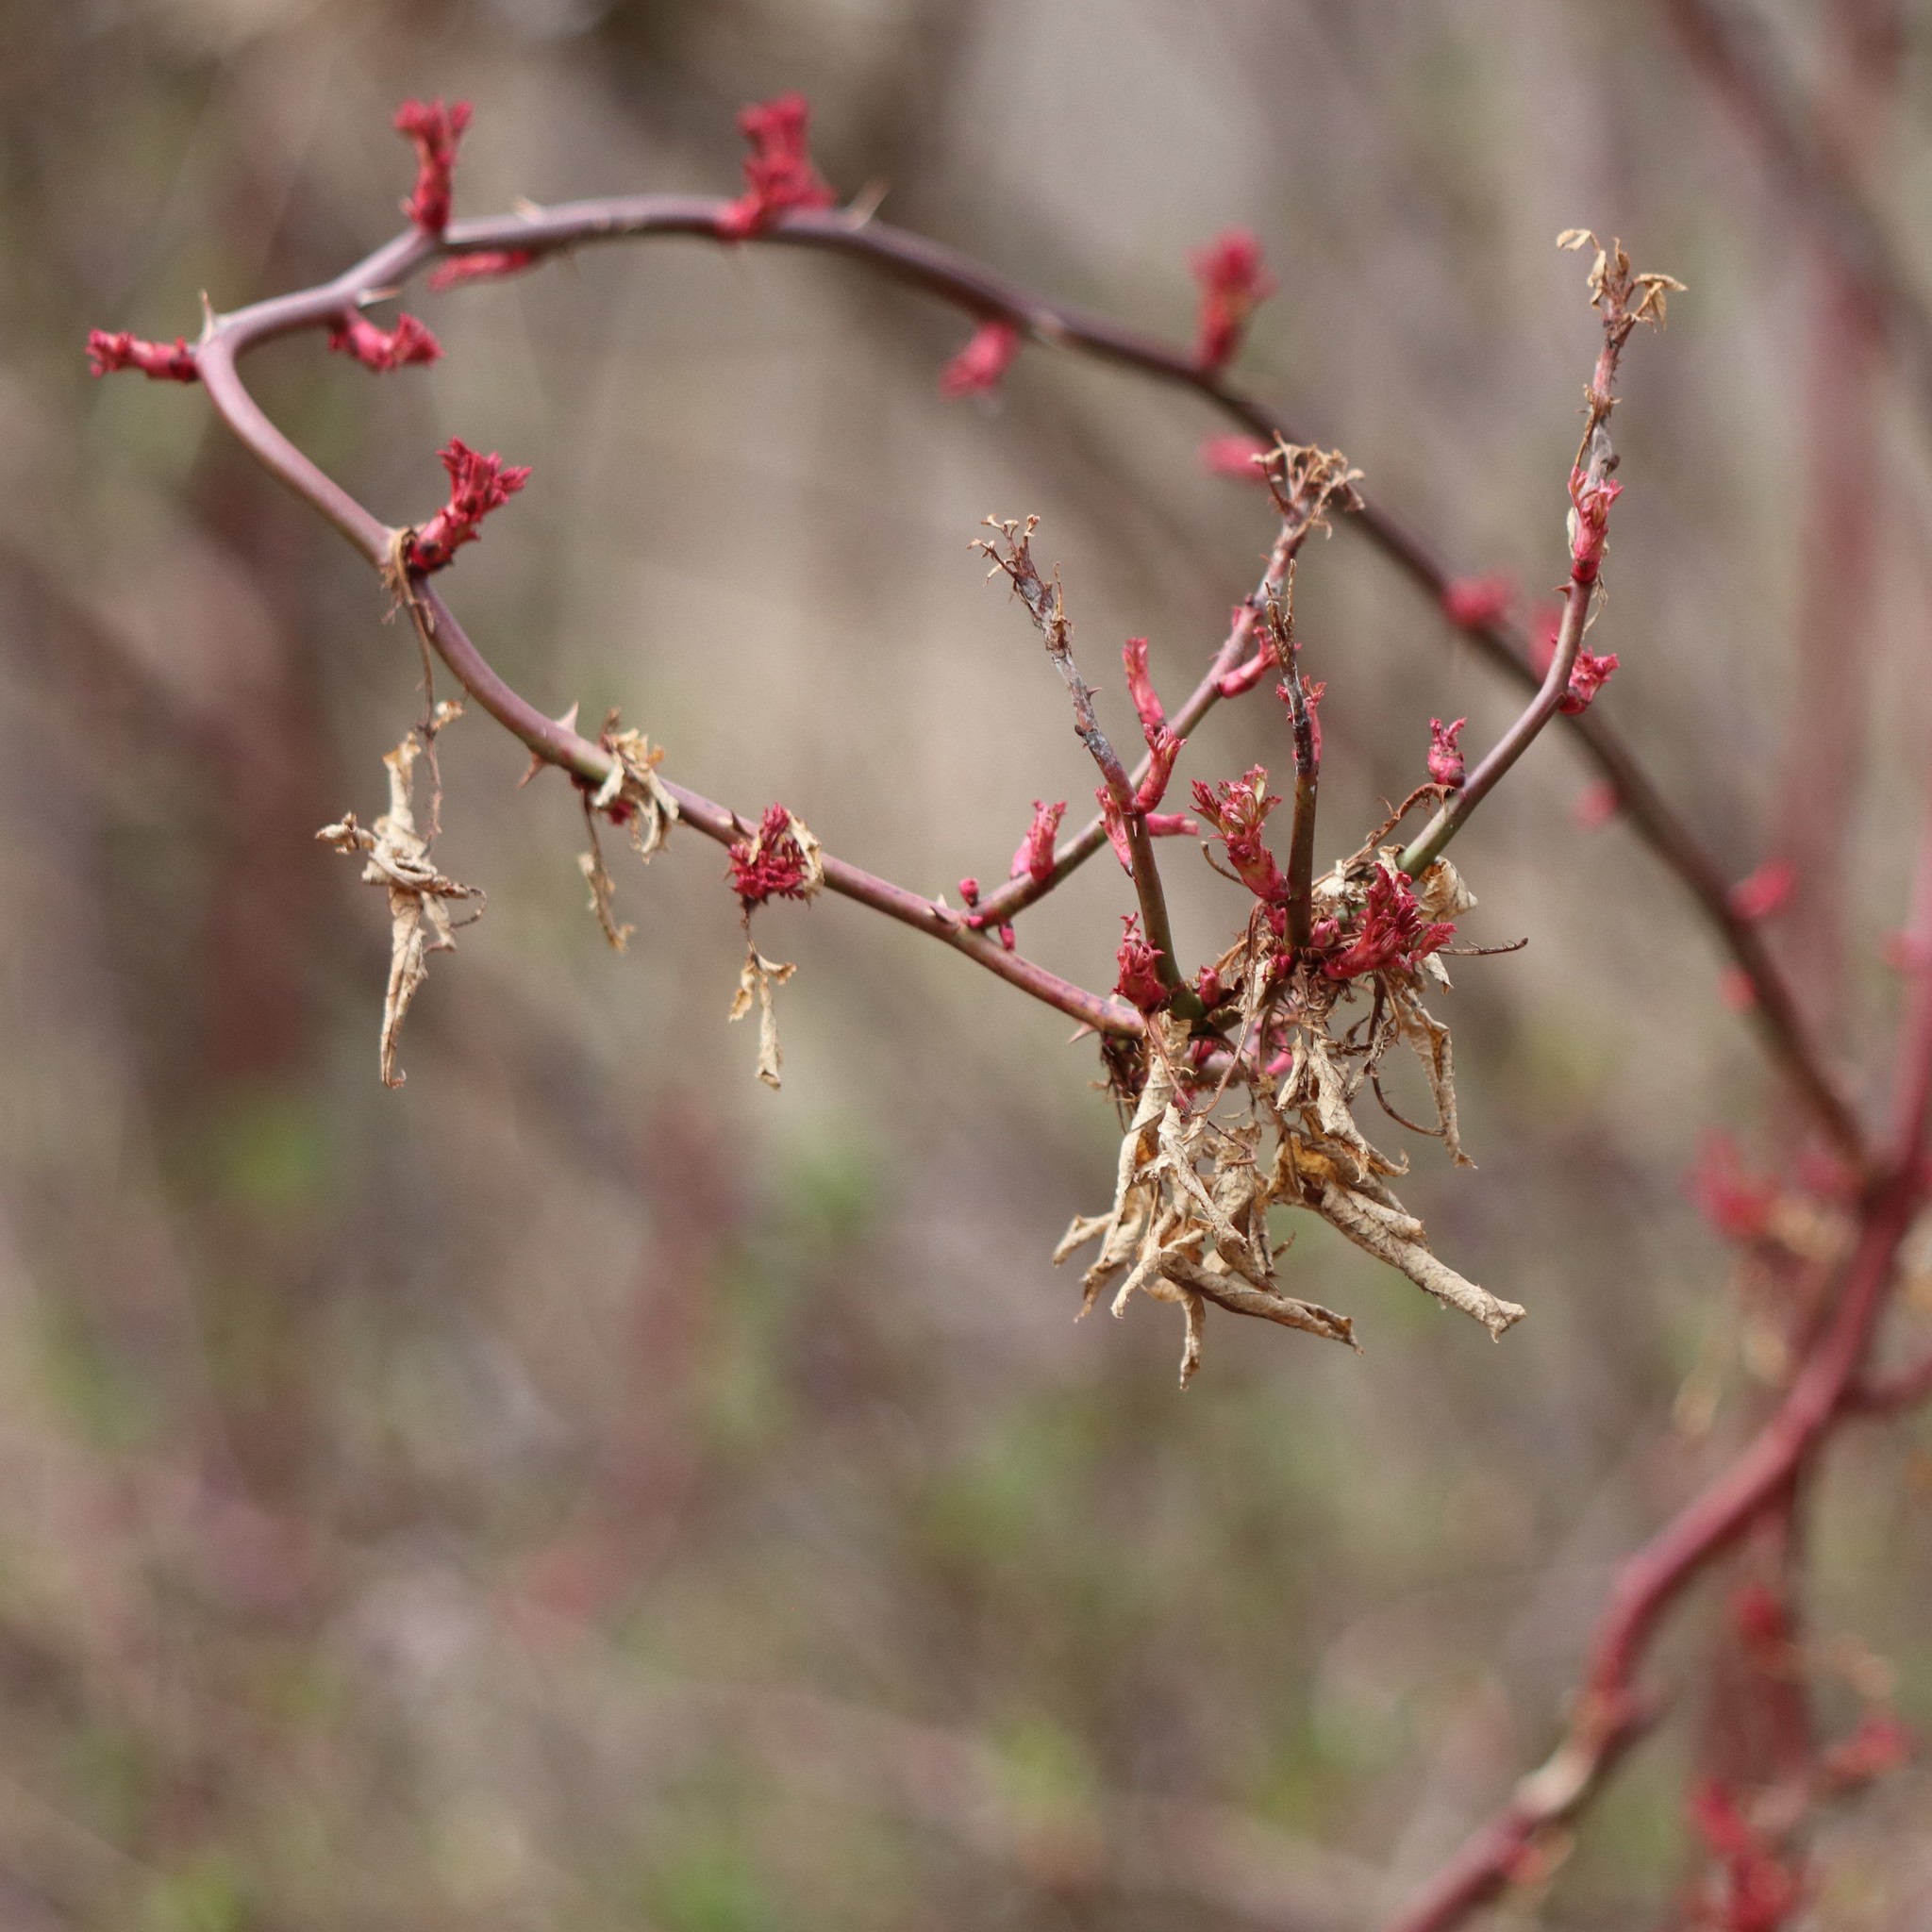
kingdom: Viruses
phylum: Negarnaviricota
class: Ellioviricetes
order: Bunyavirales
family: Fimoviridae
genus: Emaravirus
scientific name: Emaravirus rosae
